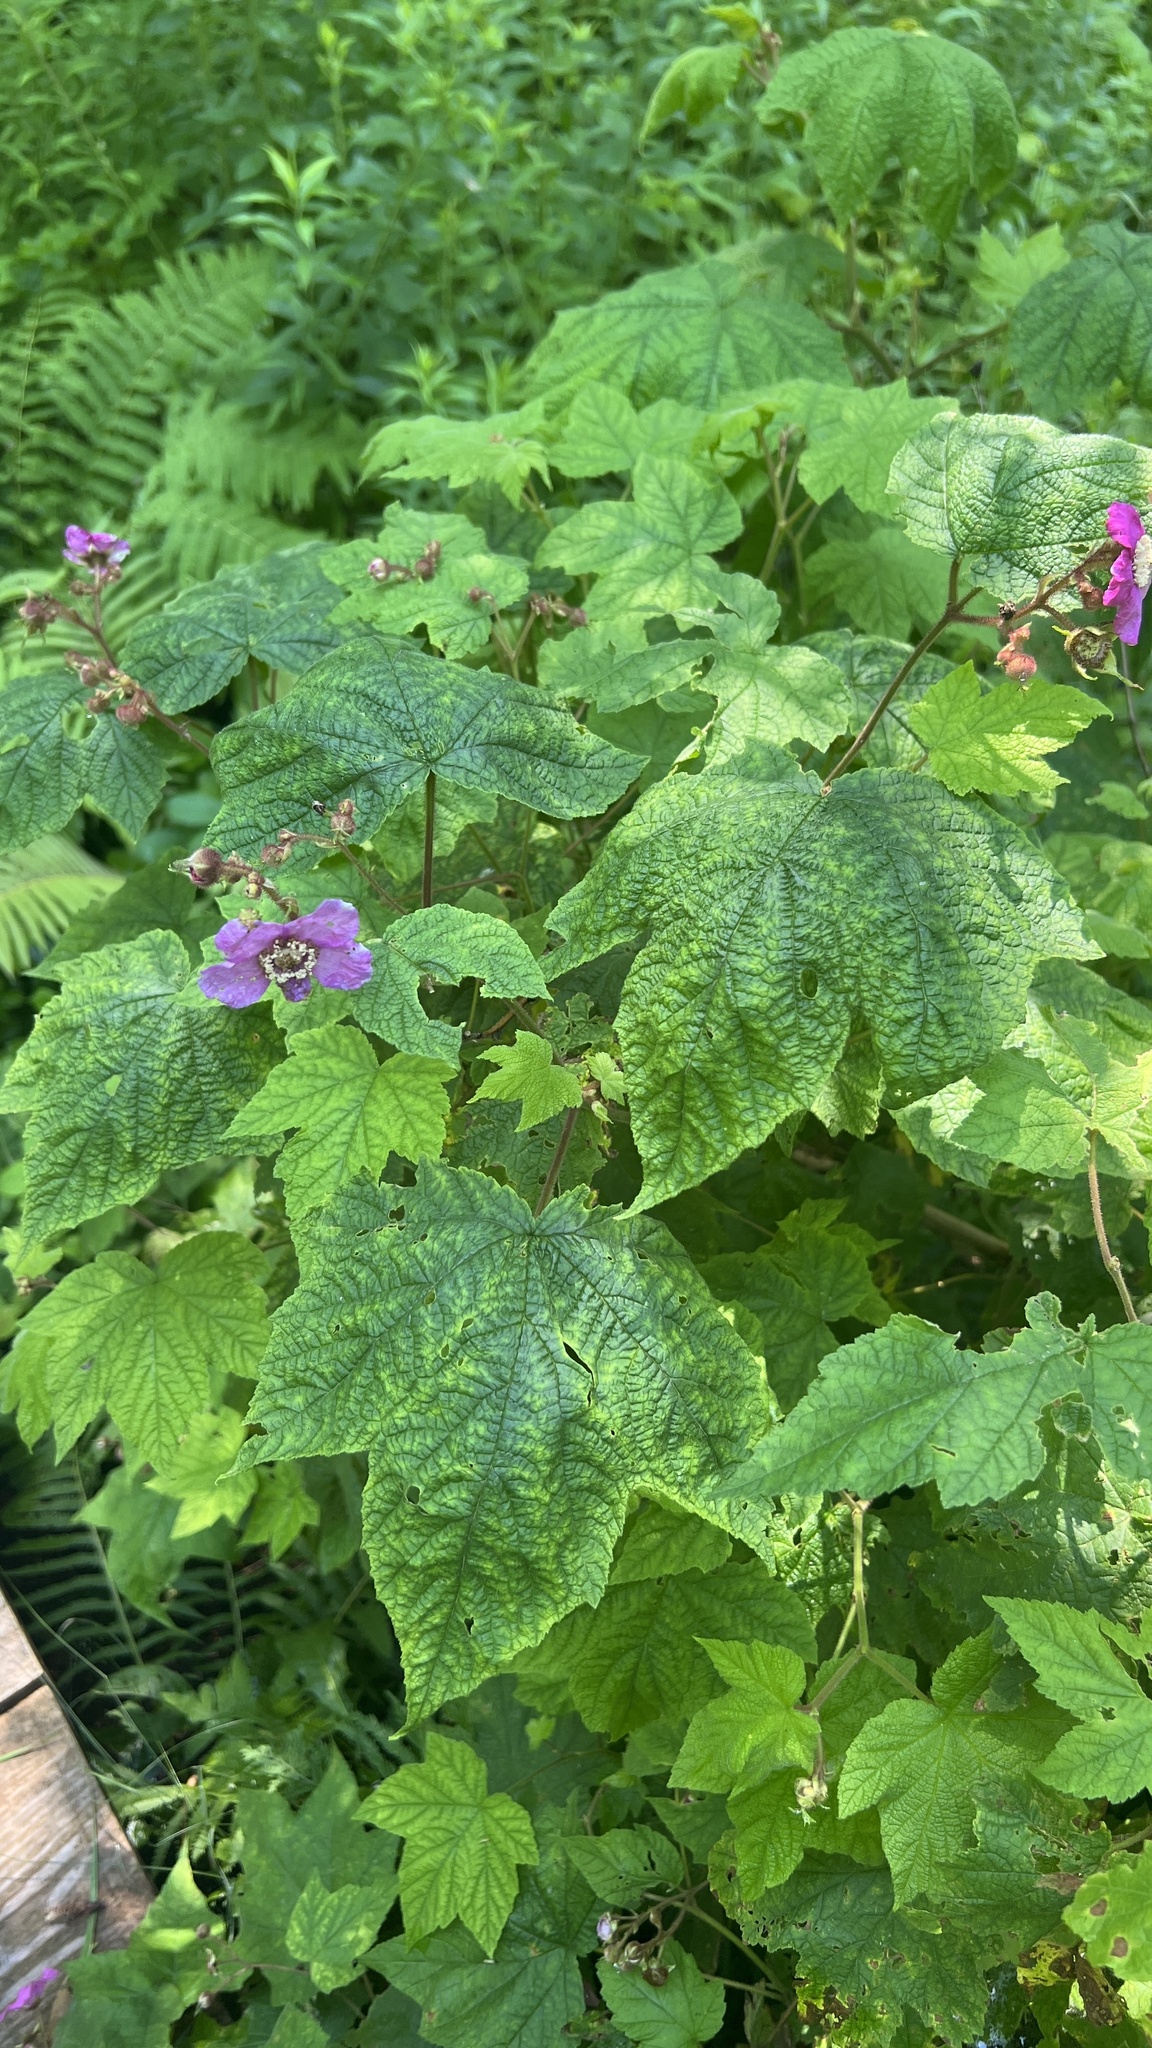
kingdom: Plantae
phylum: Tracheophyta
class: Magnoliopsida
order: Rosales
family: Rosaceae
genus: Rubus
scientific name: Rubus odoratus
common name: Purple-flowered raspberry
